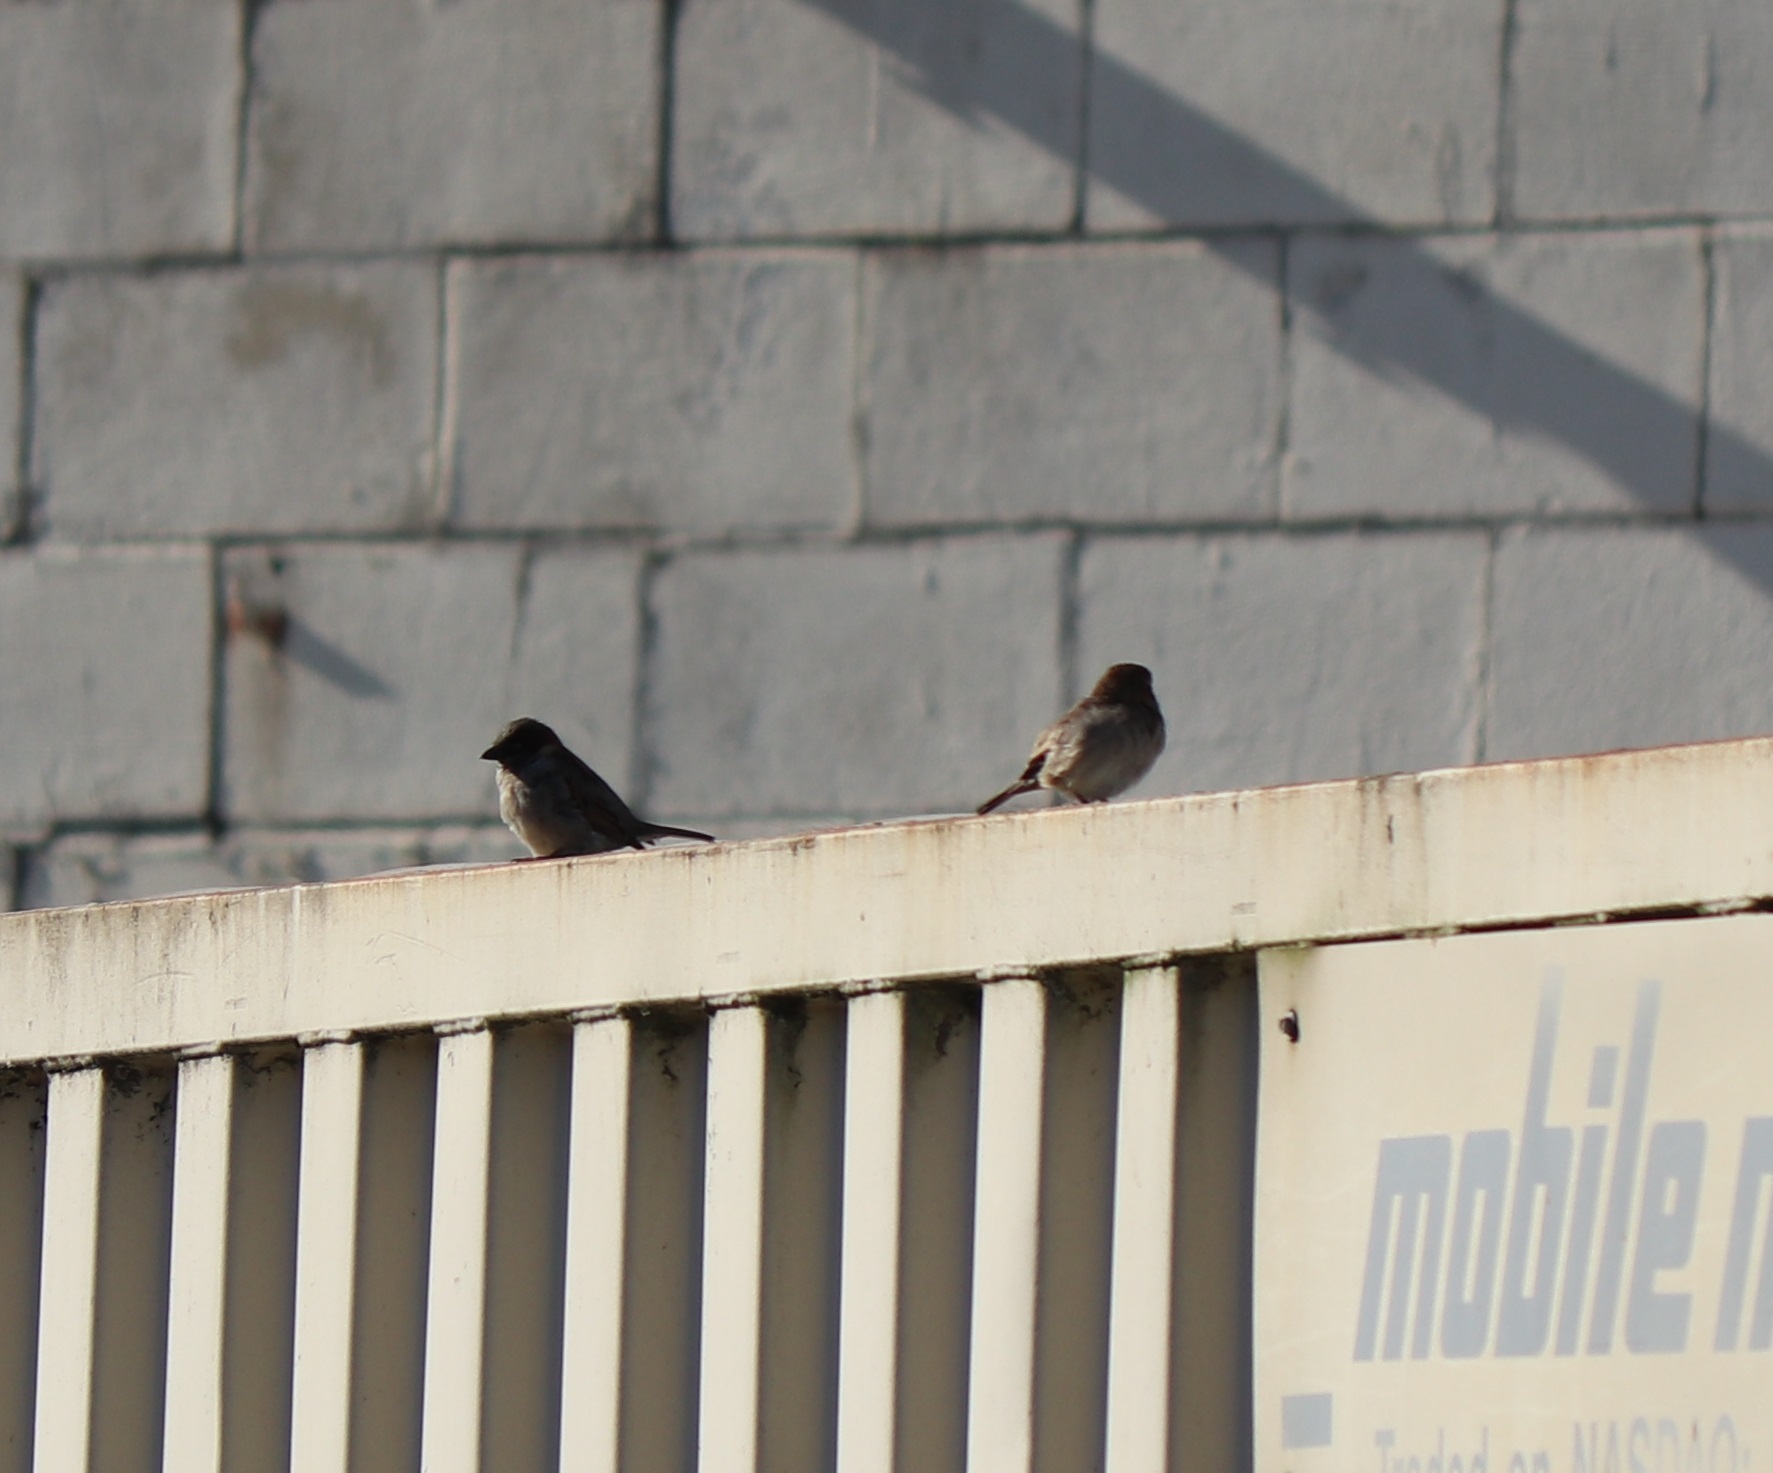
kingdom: Animalia
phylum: Chordata
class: Aves
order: Passeriformes
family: Passeridae
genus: Passer
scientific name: Passer domesticus
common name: House sparrow
